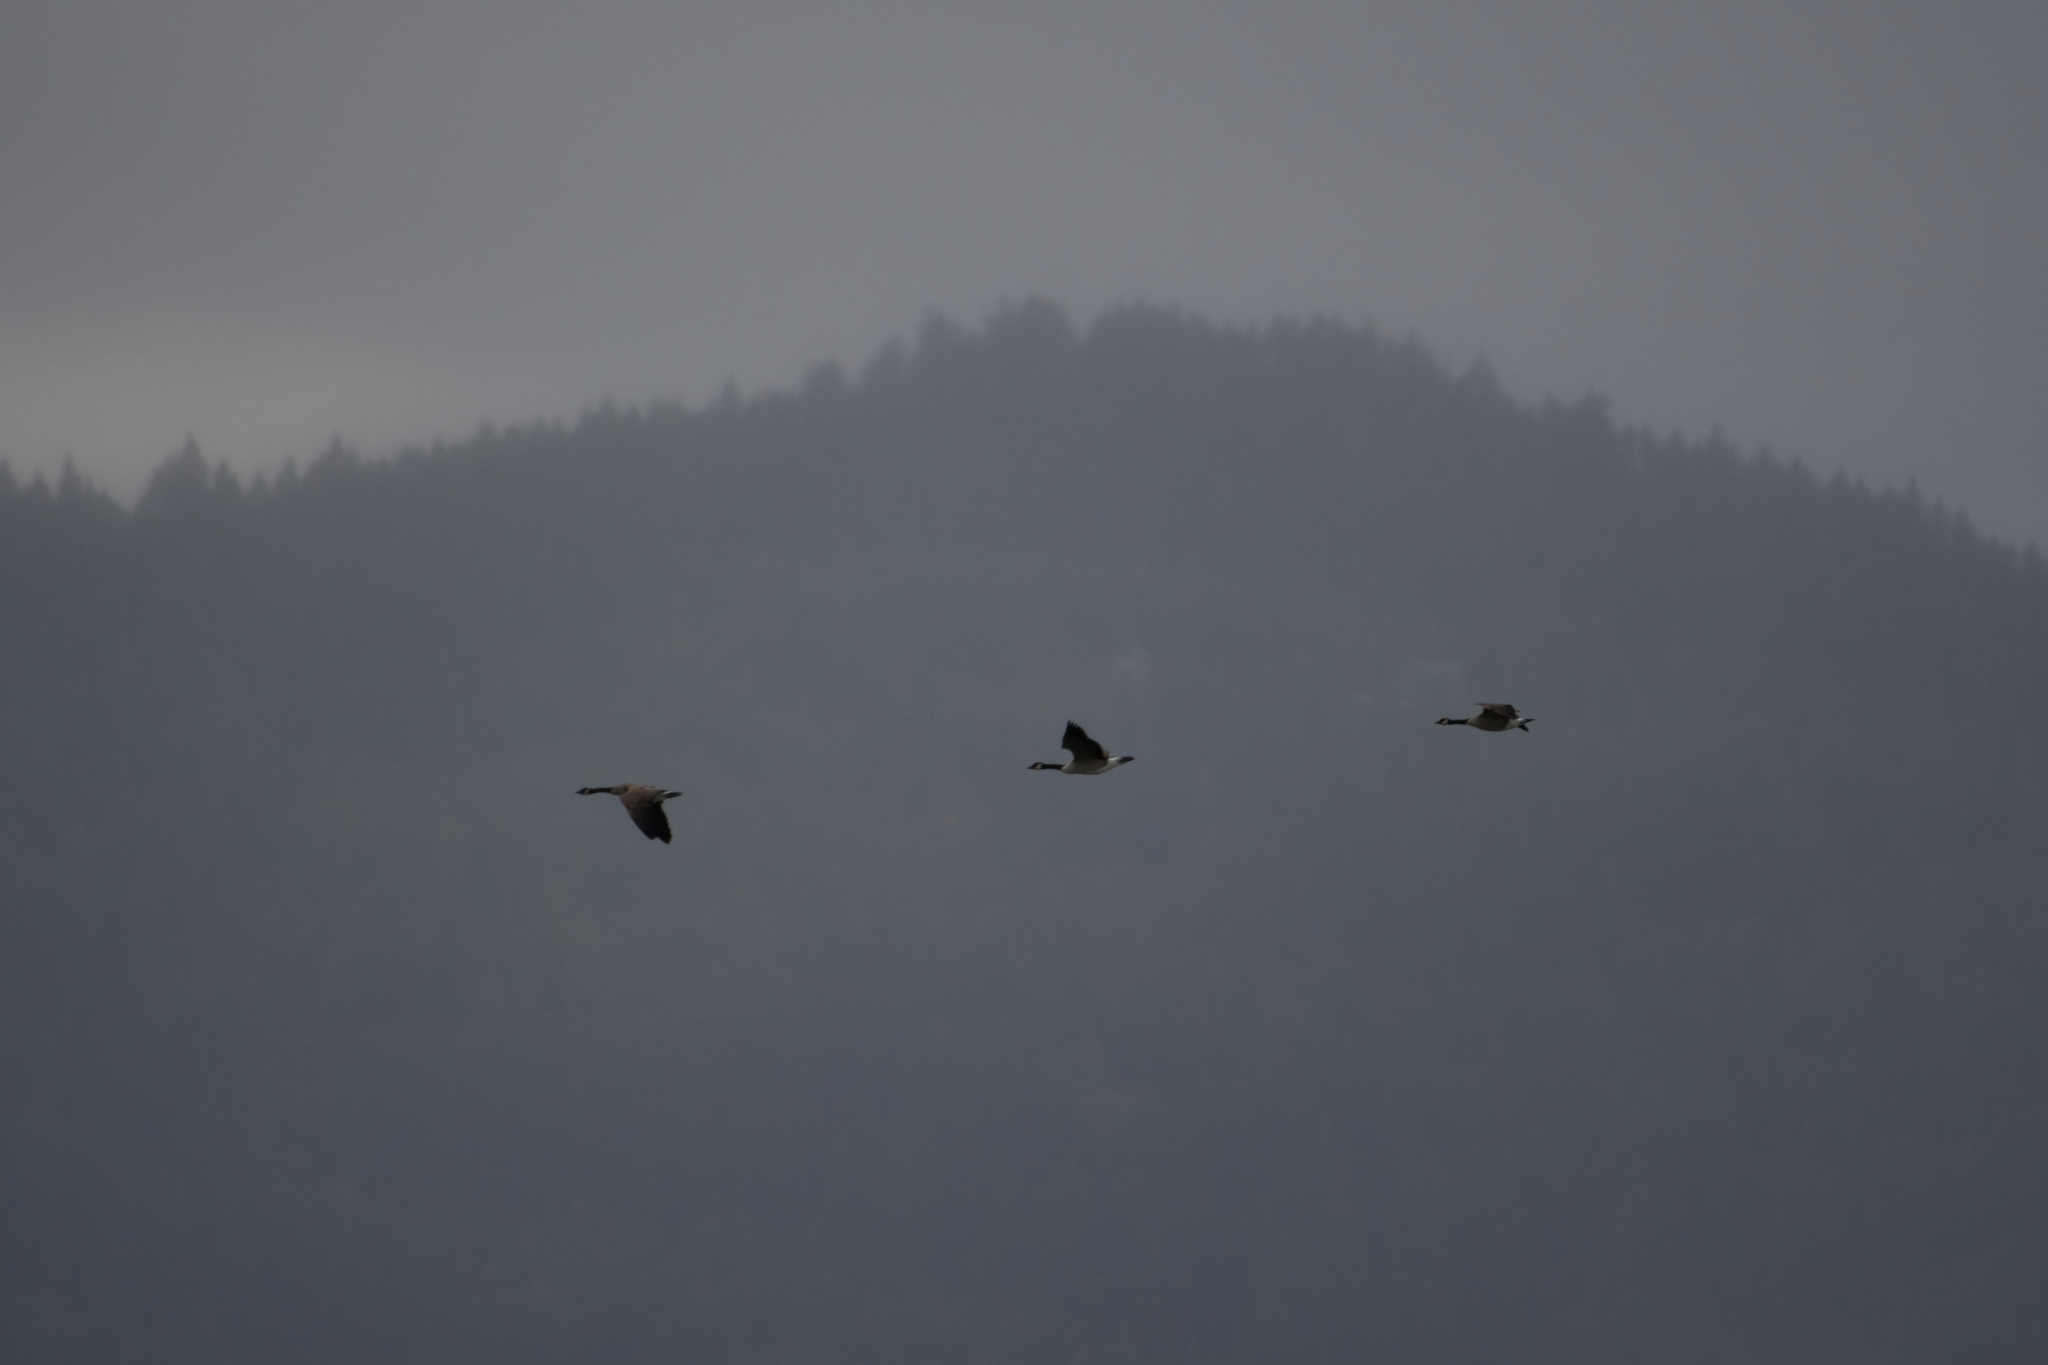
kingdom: Animalia
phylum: Chordata
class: Aves
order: Anseriformes
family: Anatidae
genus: Branta
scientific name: Branta canadensis
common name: Canada goose
